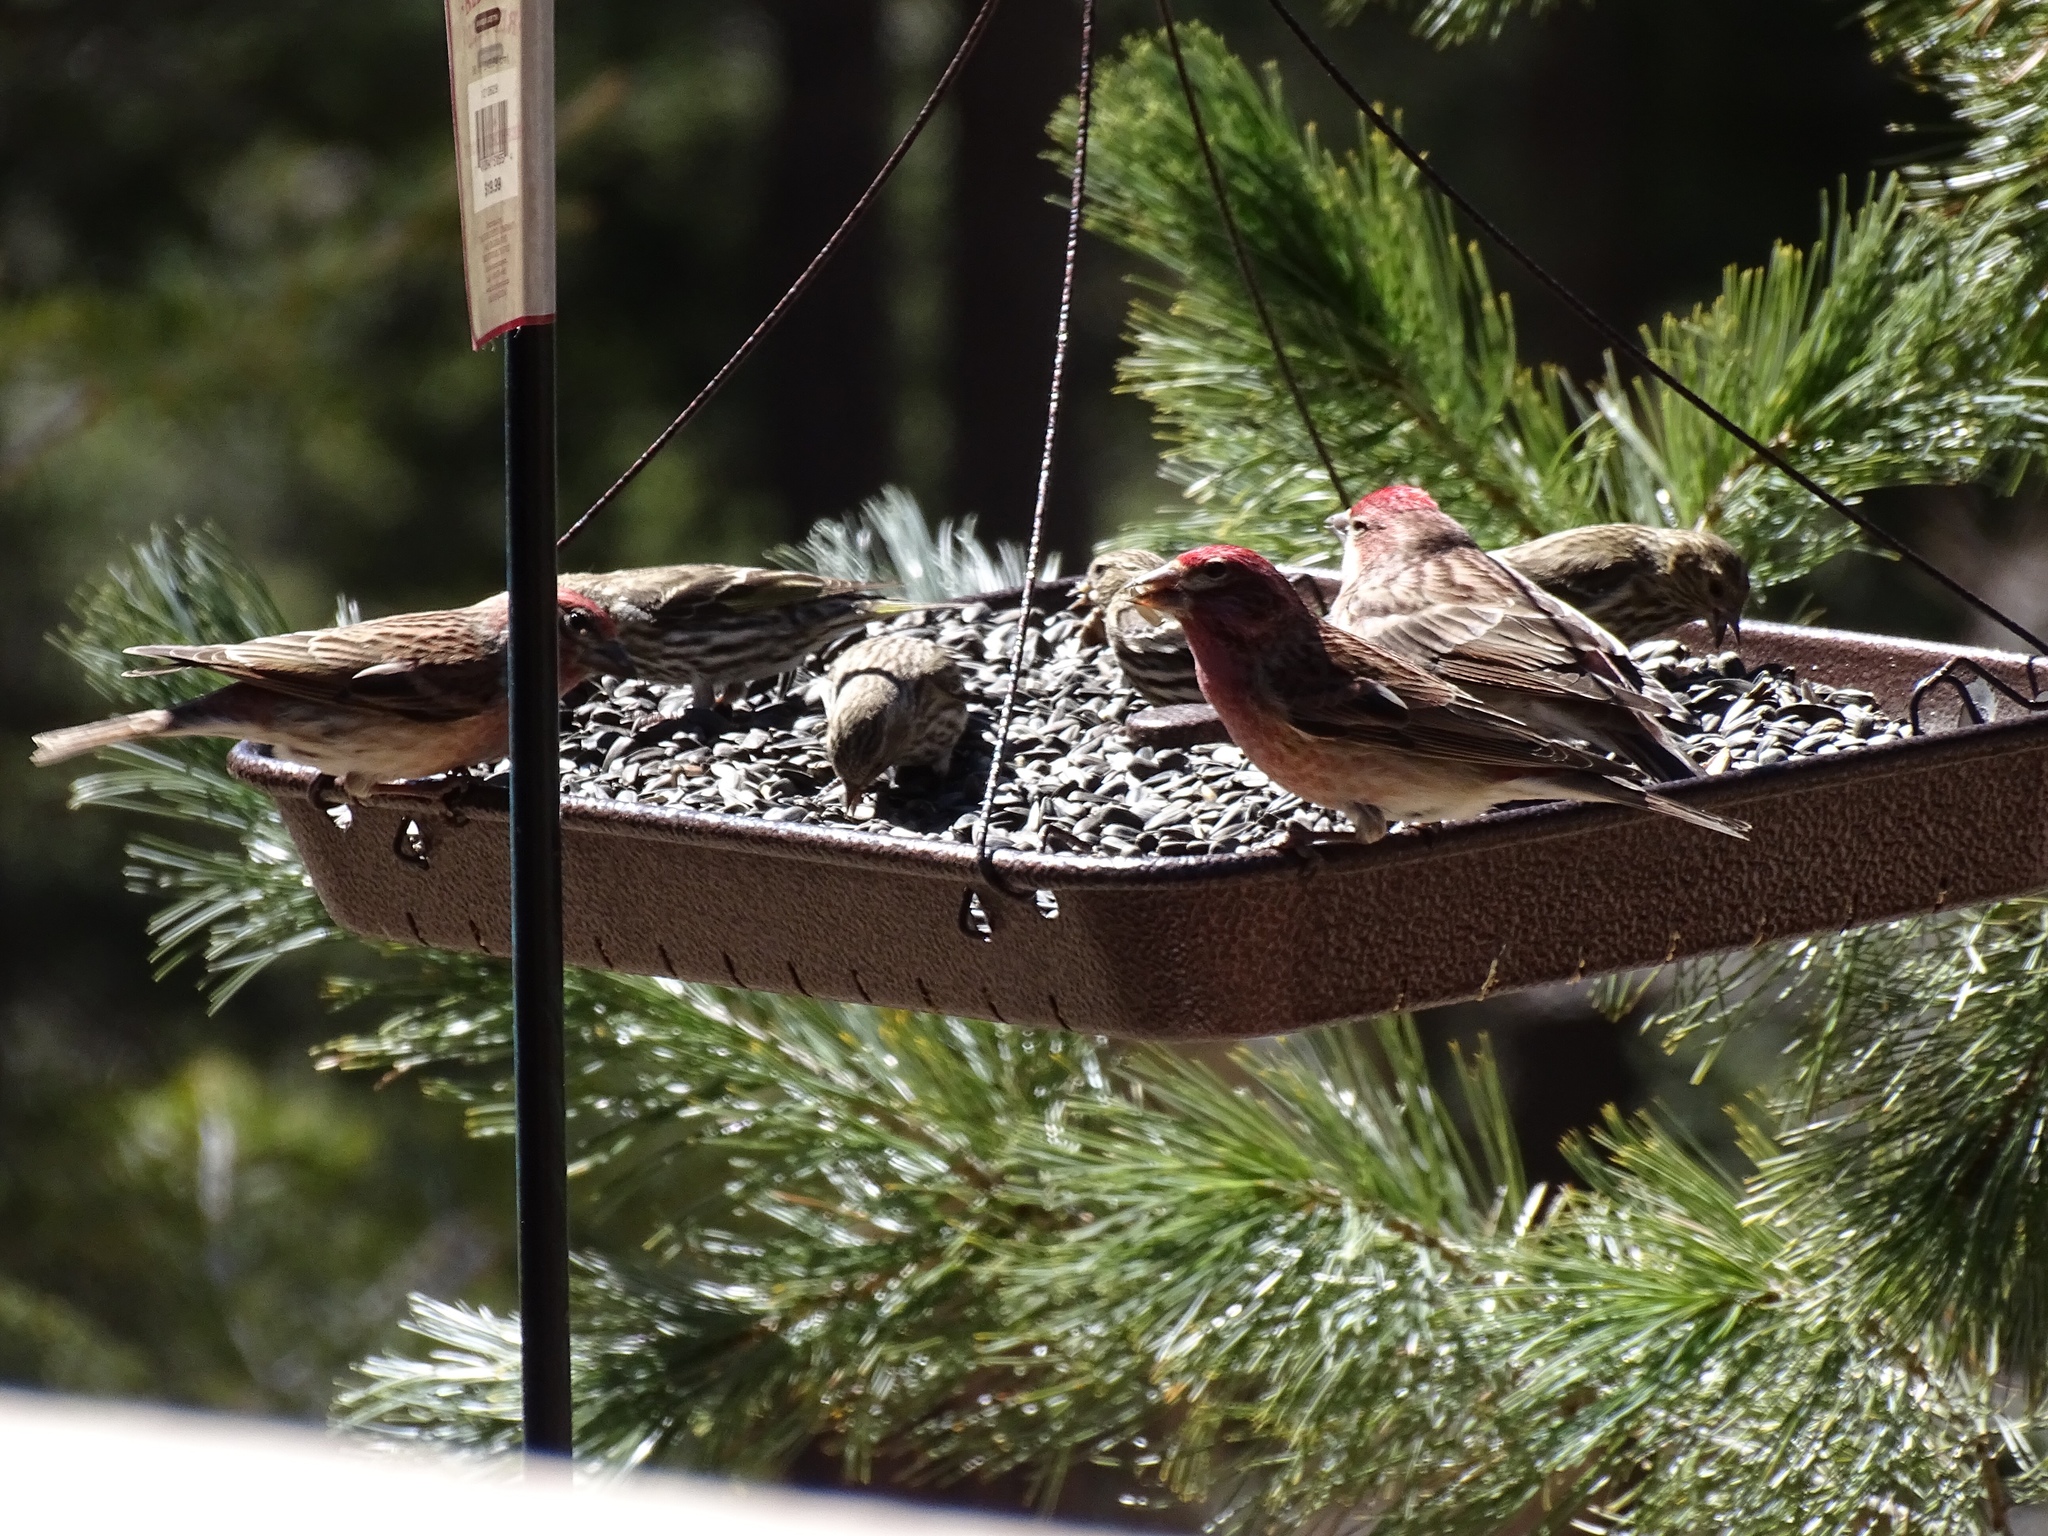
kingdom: Animalia
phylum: Chordata
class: Aves
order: Passeriformes
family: Fringillidae
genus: Haemorhous
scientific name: Haemorhous cassinii
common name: Cassin's finch
